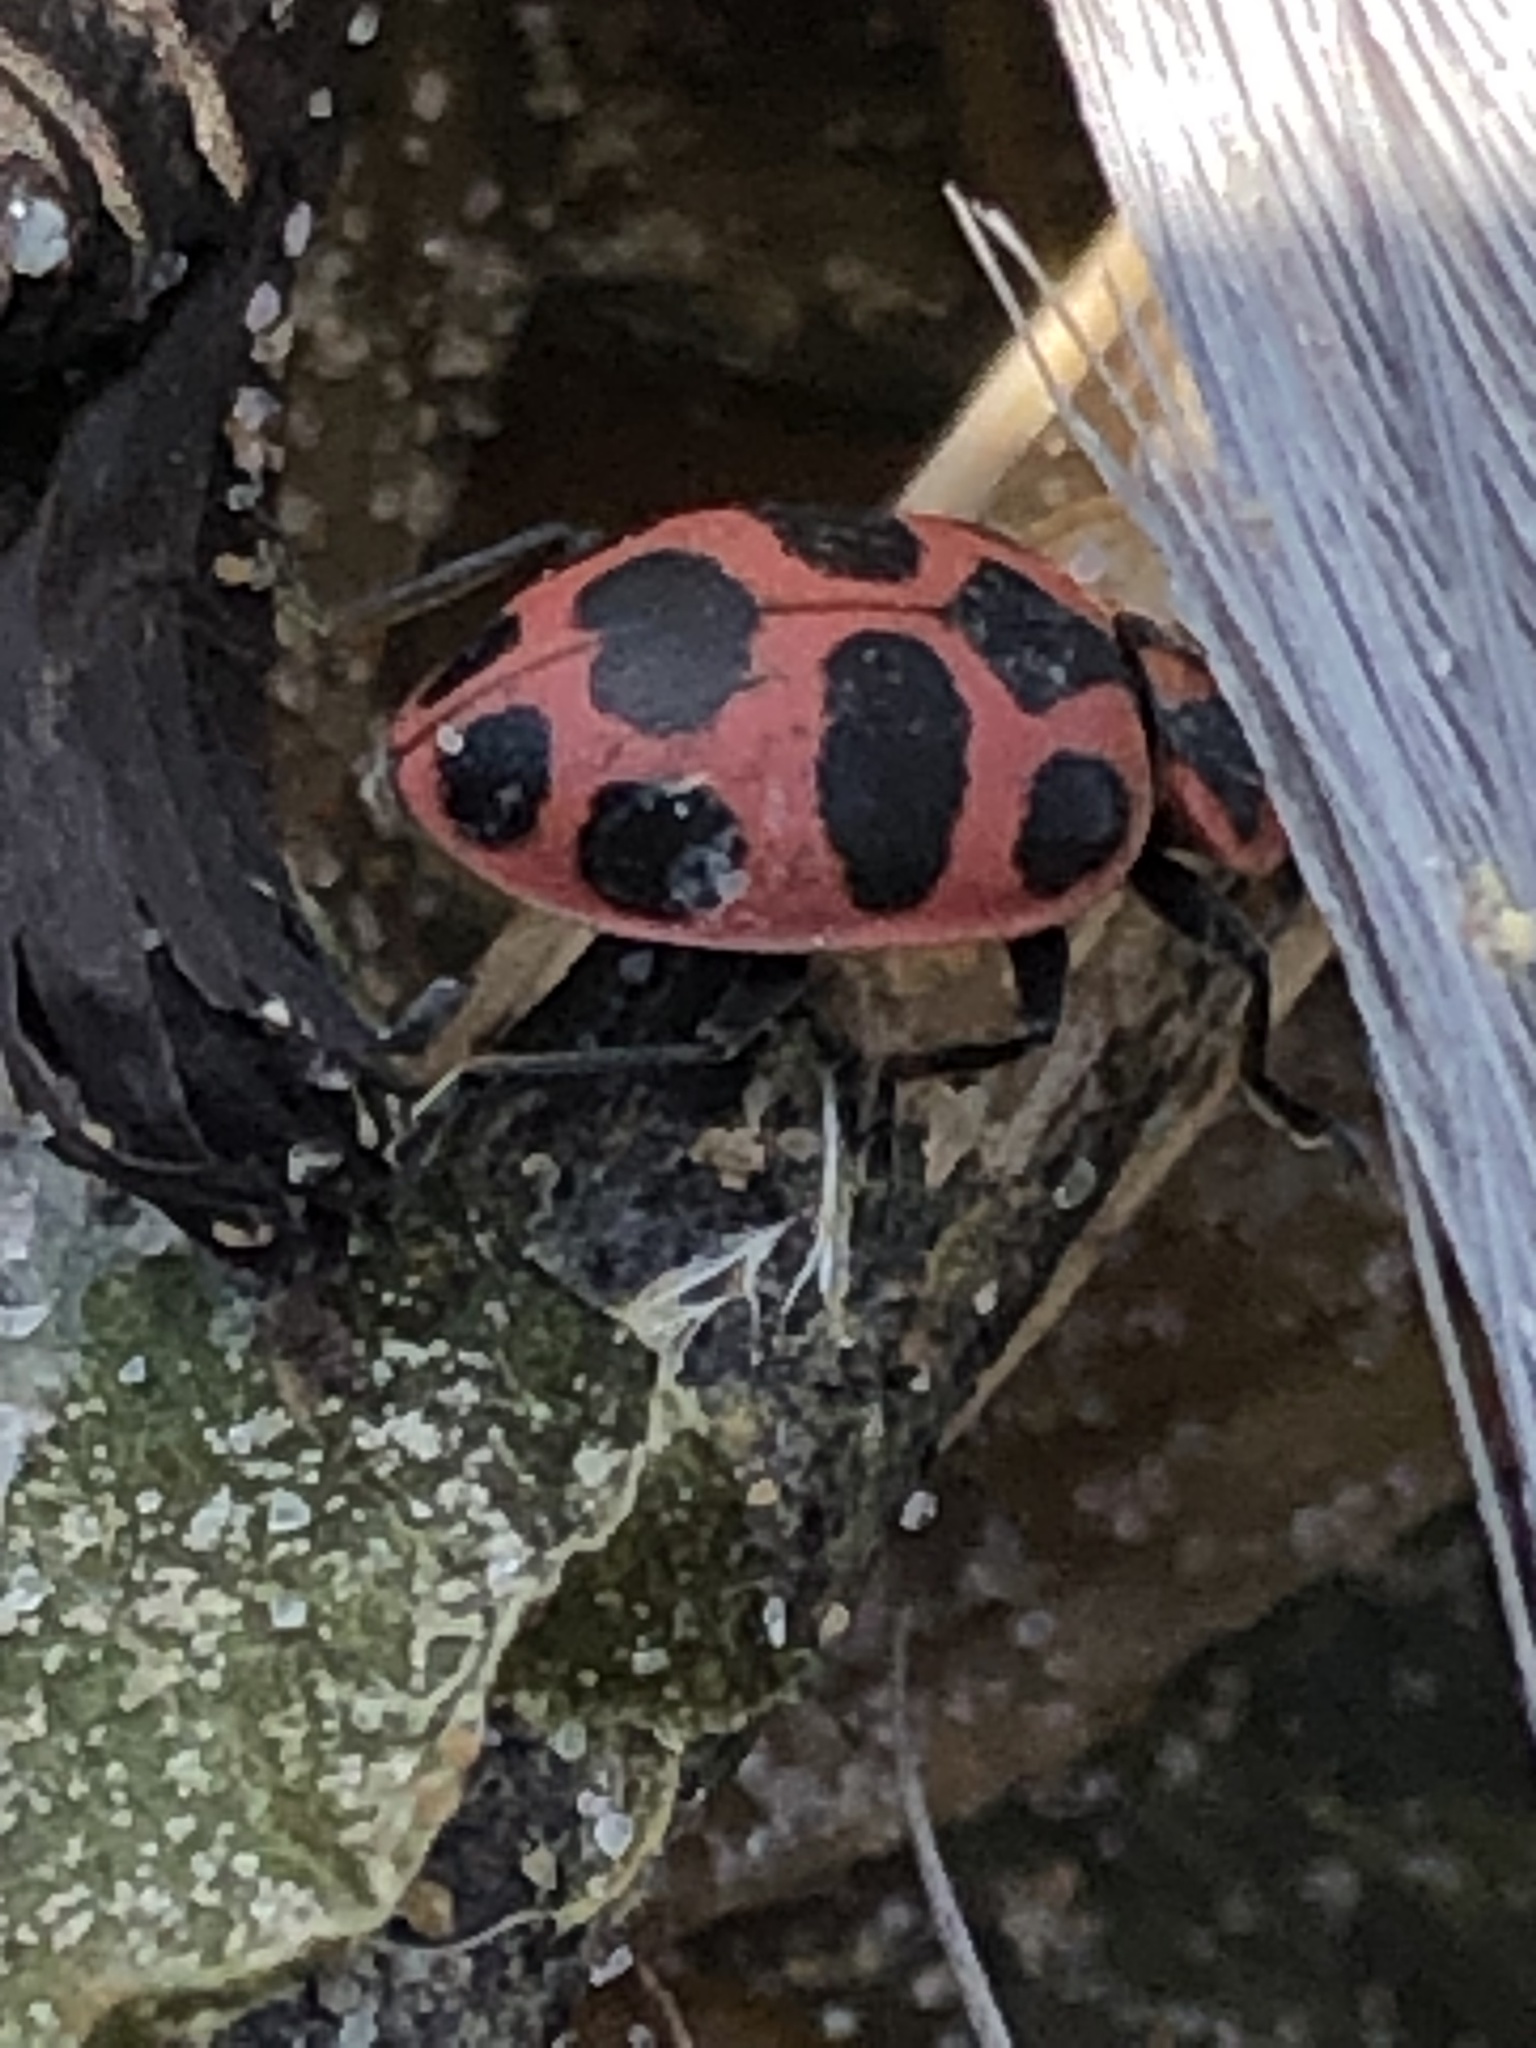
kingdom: Animalia
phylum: Arthropoda
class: Insecta
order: Coleoptera
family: Coccinellidae
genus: Coleomegilla
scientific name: Coleomegilla maculata
